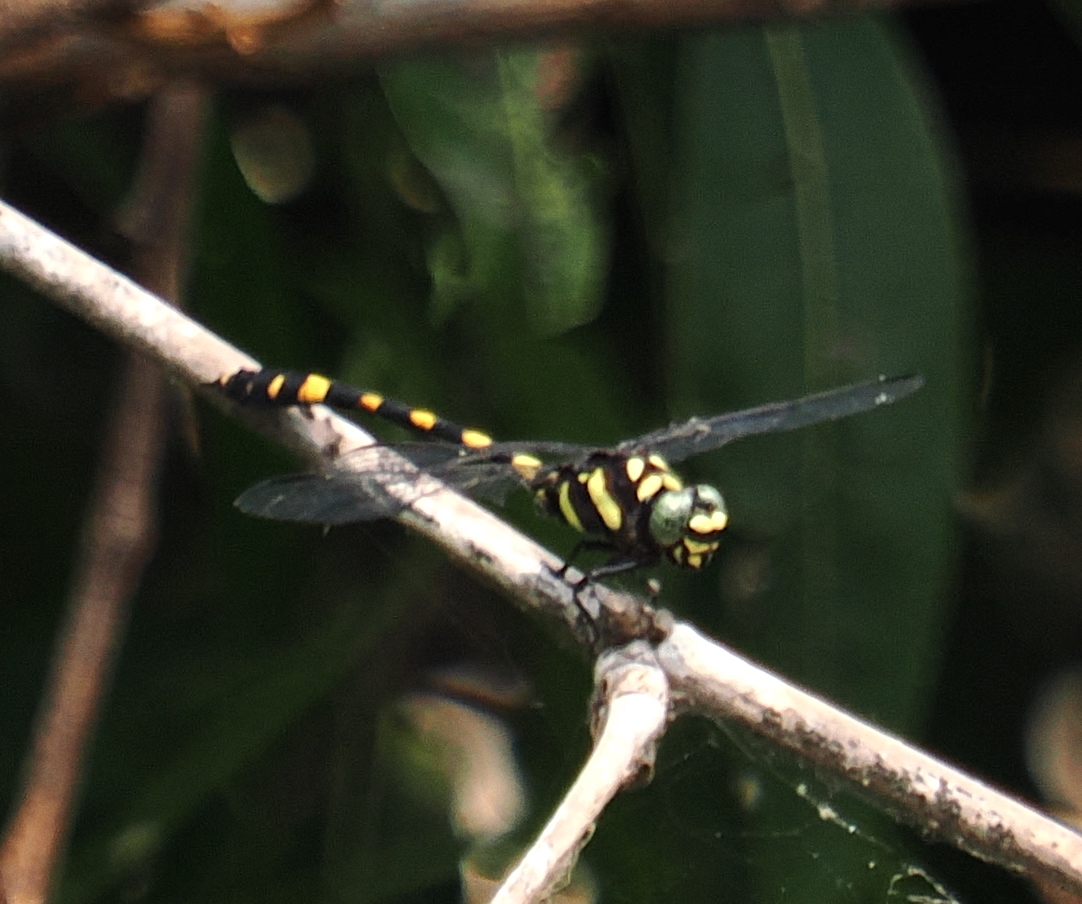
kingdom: Animalia
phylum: Arthropoda
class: Insecta
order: Odonata
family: Gomphidae
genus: Gomphidia
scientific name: Gomphidia abbotti
